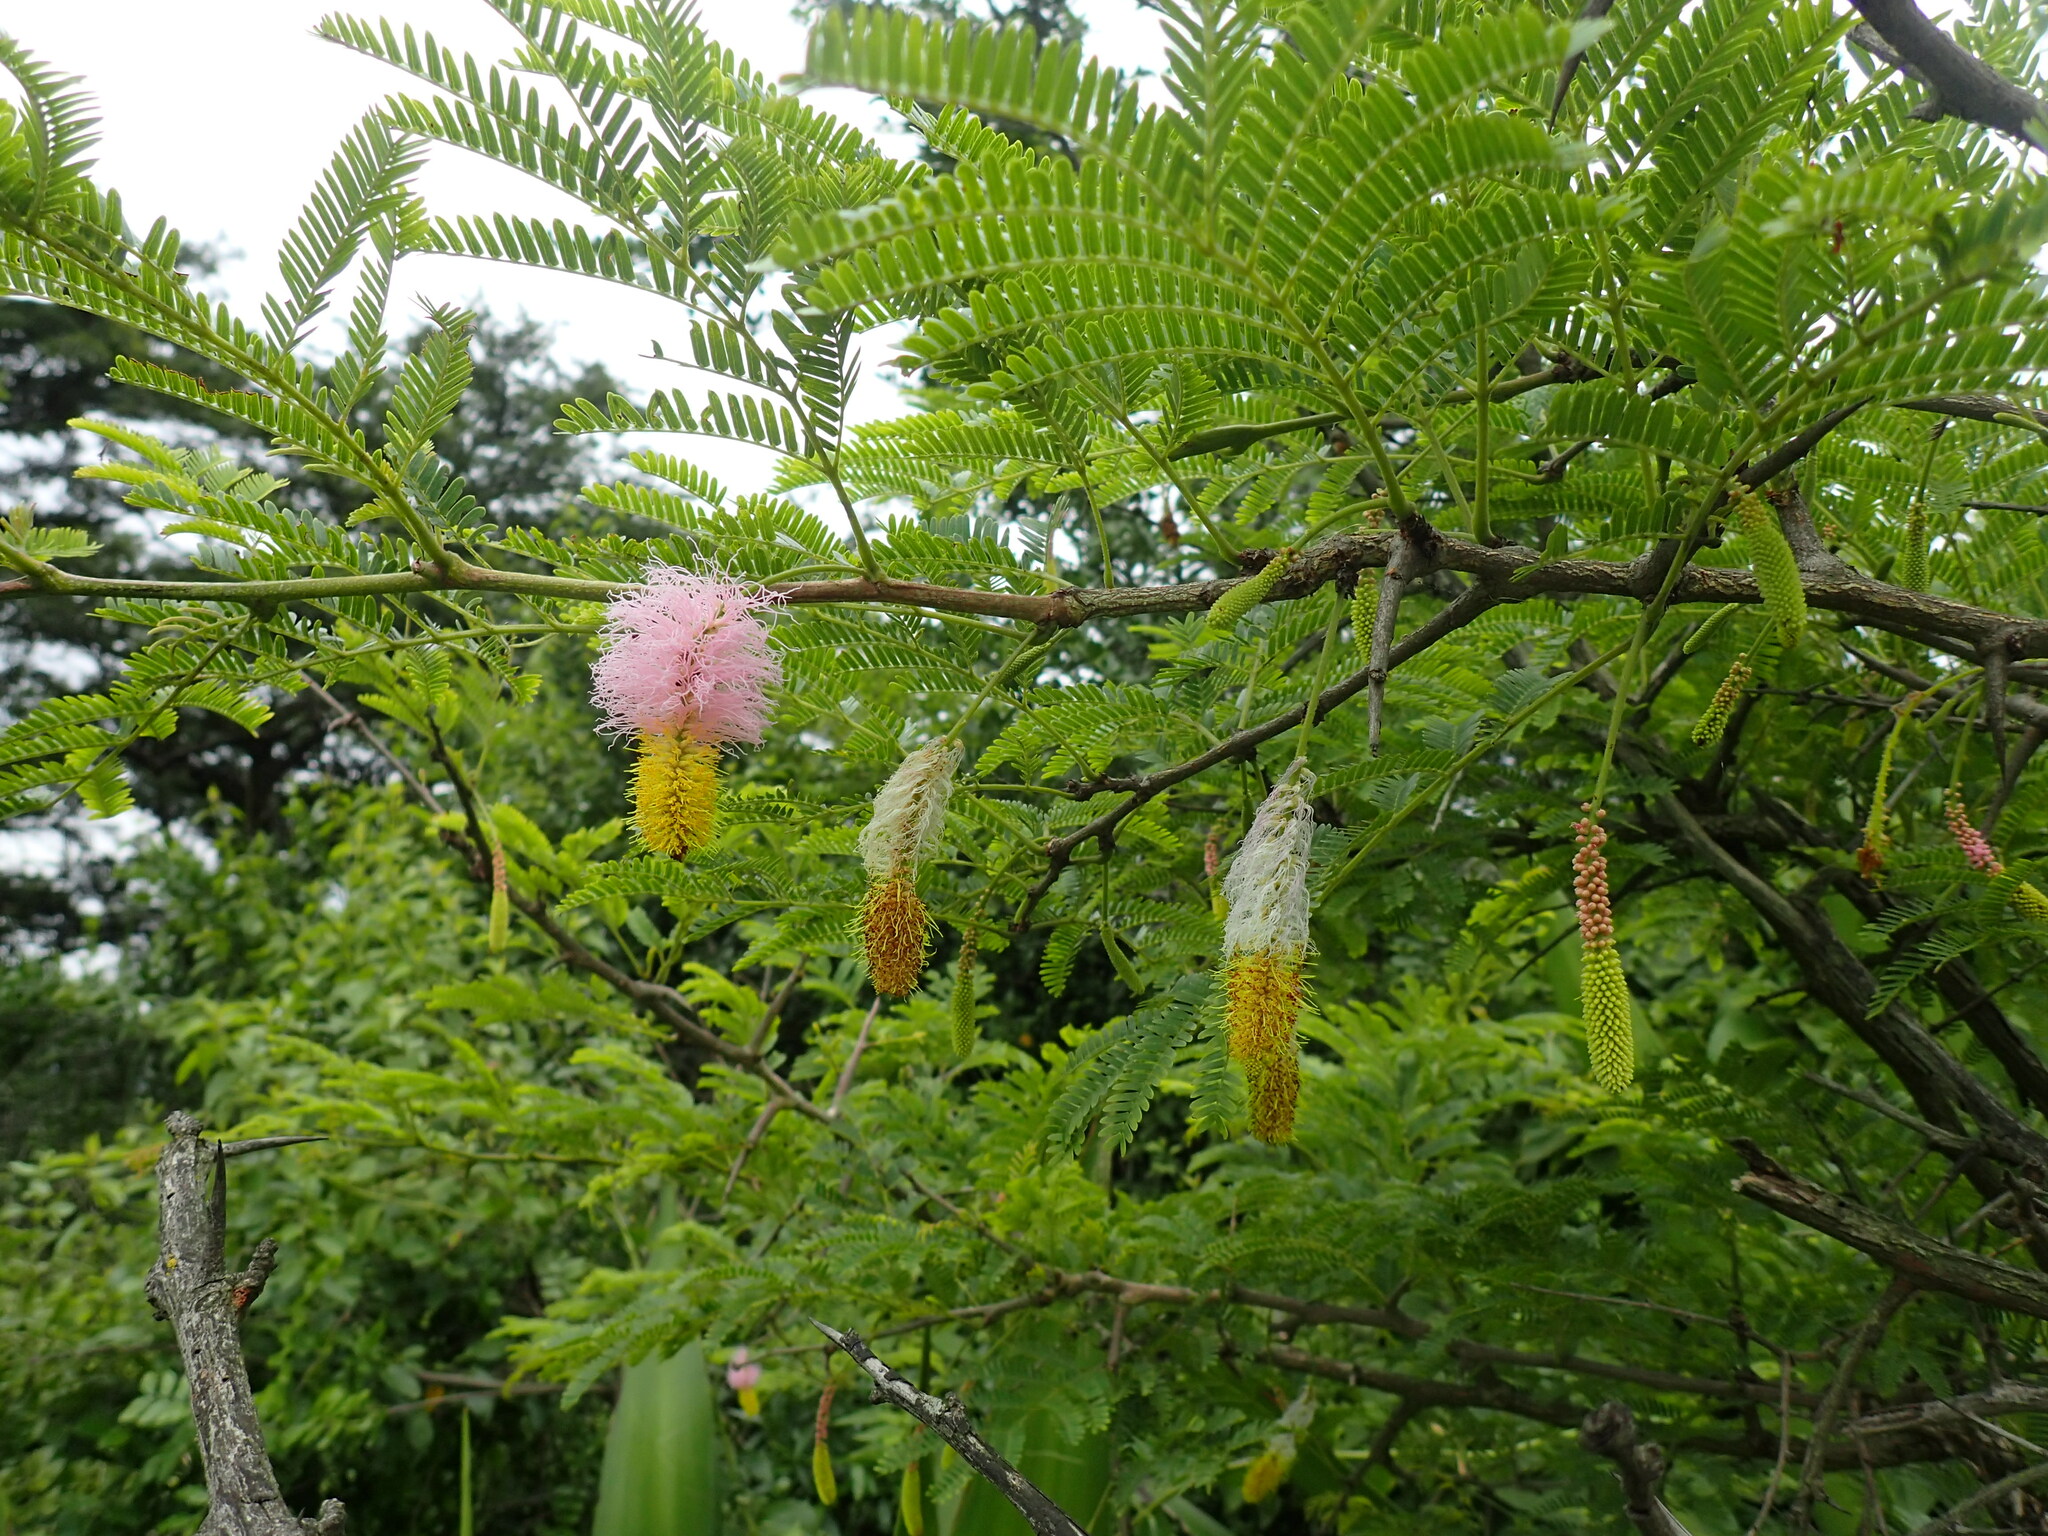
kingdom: Plantae
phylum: Tracheophyta
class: Magnoliopsida
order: Fabales
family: Fabaceae
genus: Dichrostachys
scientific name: Dichrostachys cinerea
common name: Sicklebush
